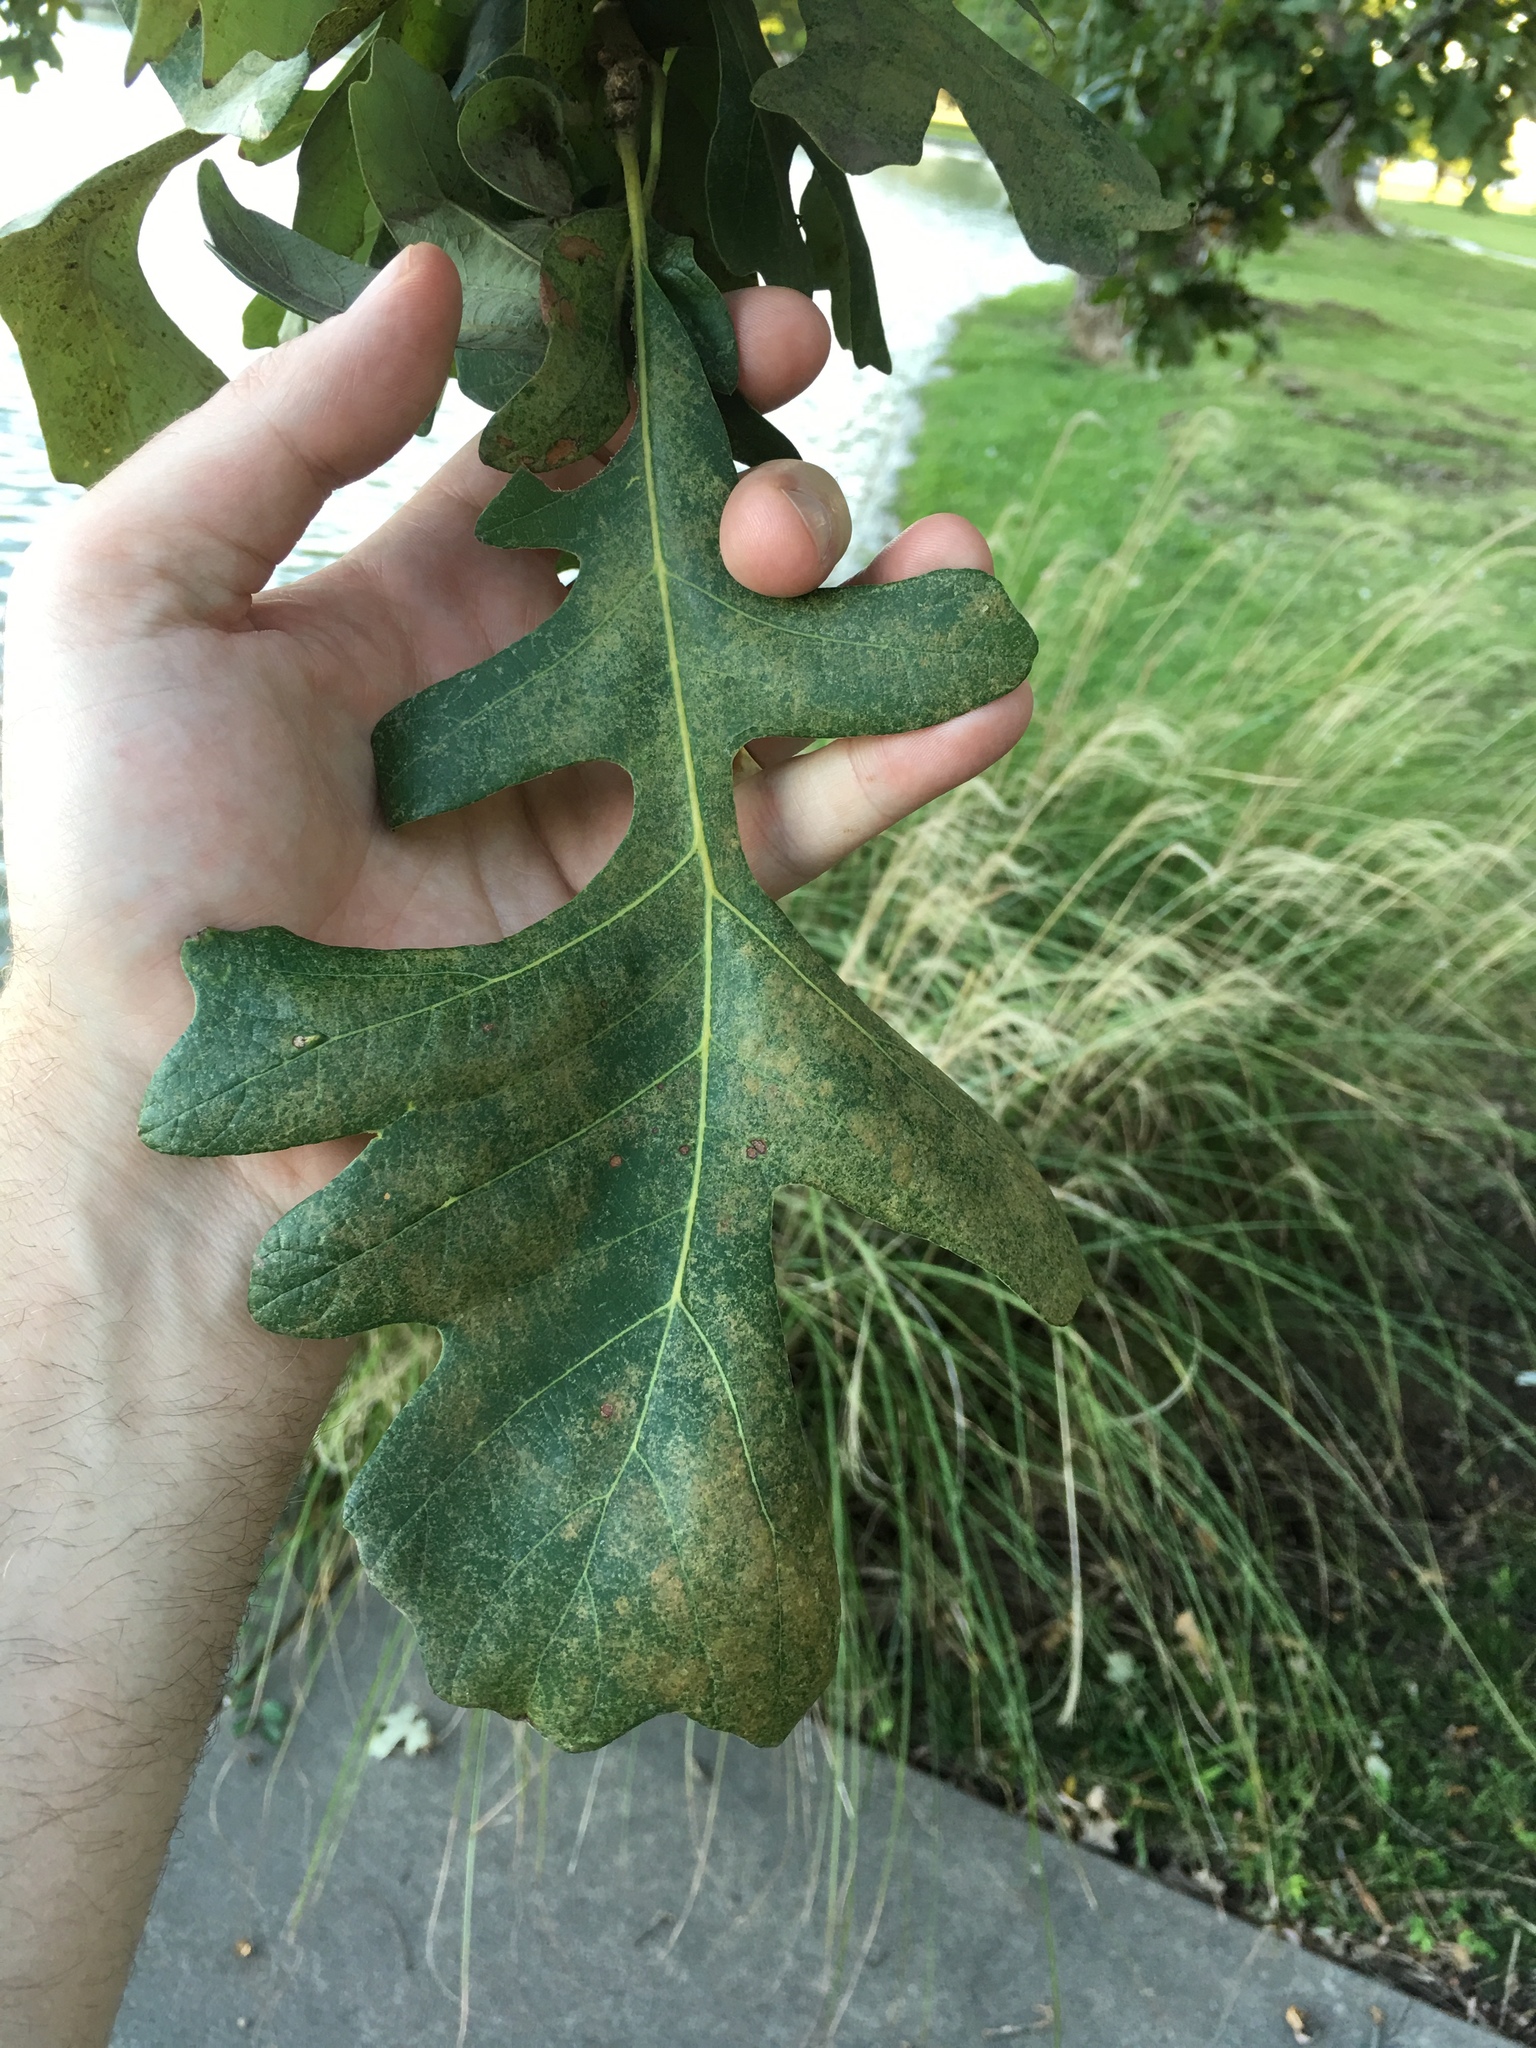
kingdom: Plantae
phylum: Tracheophyta
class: Magnoliopsida
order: Fagales
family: Fagaceae
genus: Quercus
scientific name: Quercus macrocarpa
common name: Bur oak
